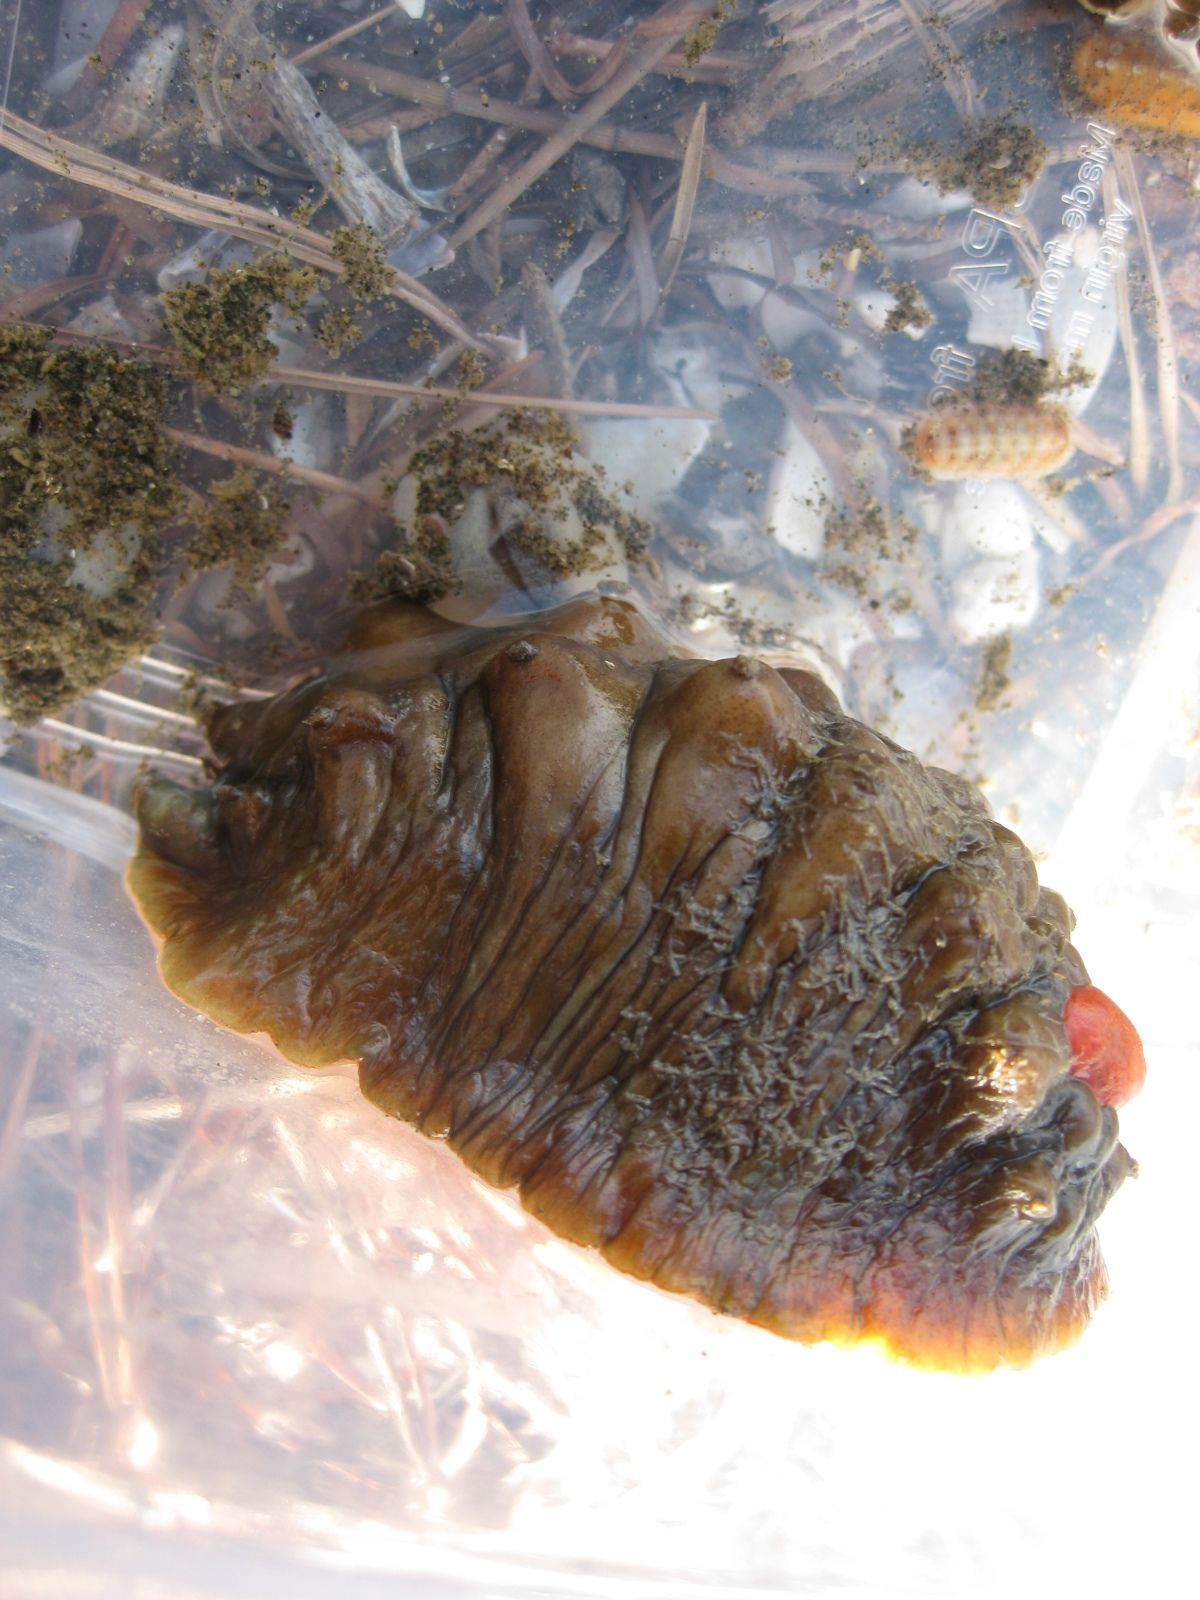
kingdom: Animalia
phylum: Mollusca
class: Polyplacophora
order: Chitonida
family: Acanthochitonidae
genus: Cryptoconchus
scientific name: Cryptoconchus porosus
